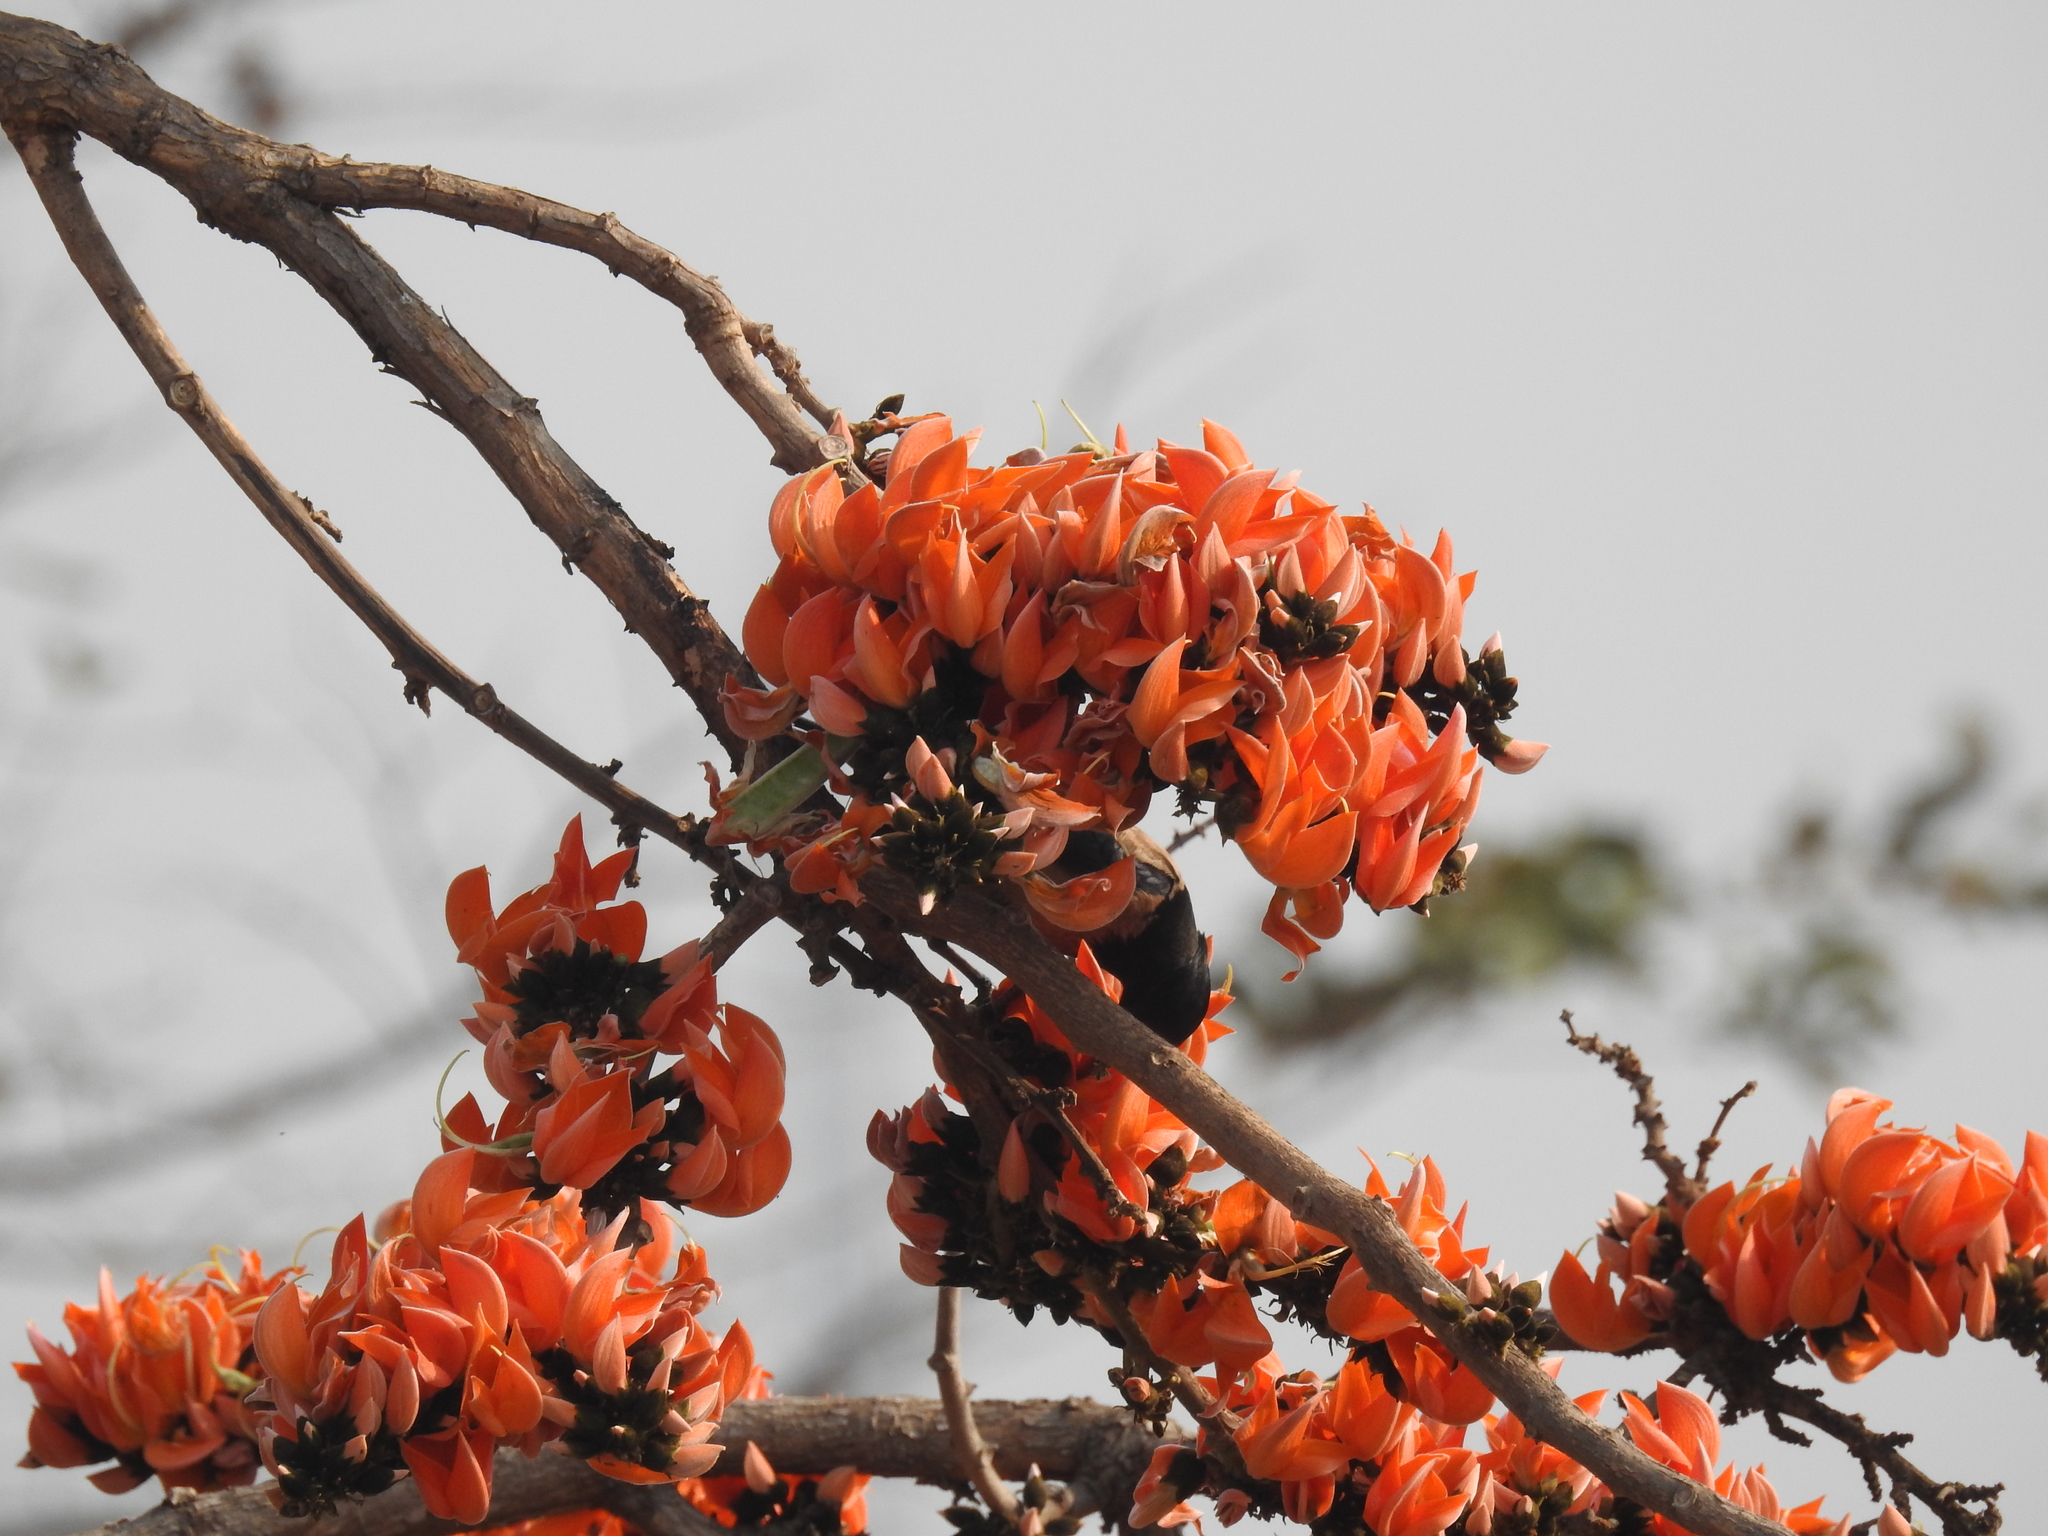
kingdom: Plantae
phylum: Tracheophyta
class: Magnoliopsida
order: Fabales
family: Fabaceae
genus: Butea
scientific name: Butea monosperma
